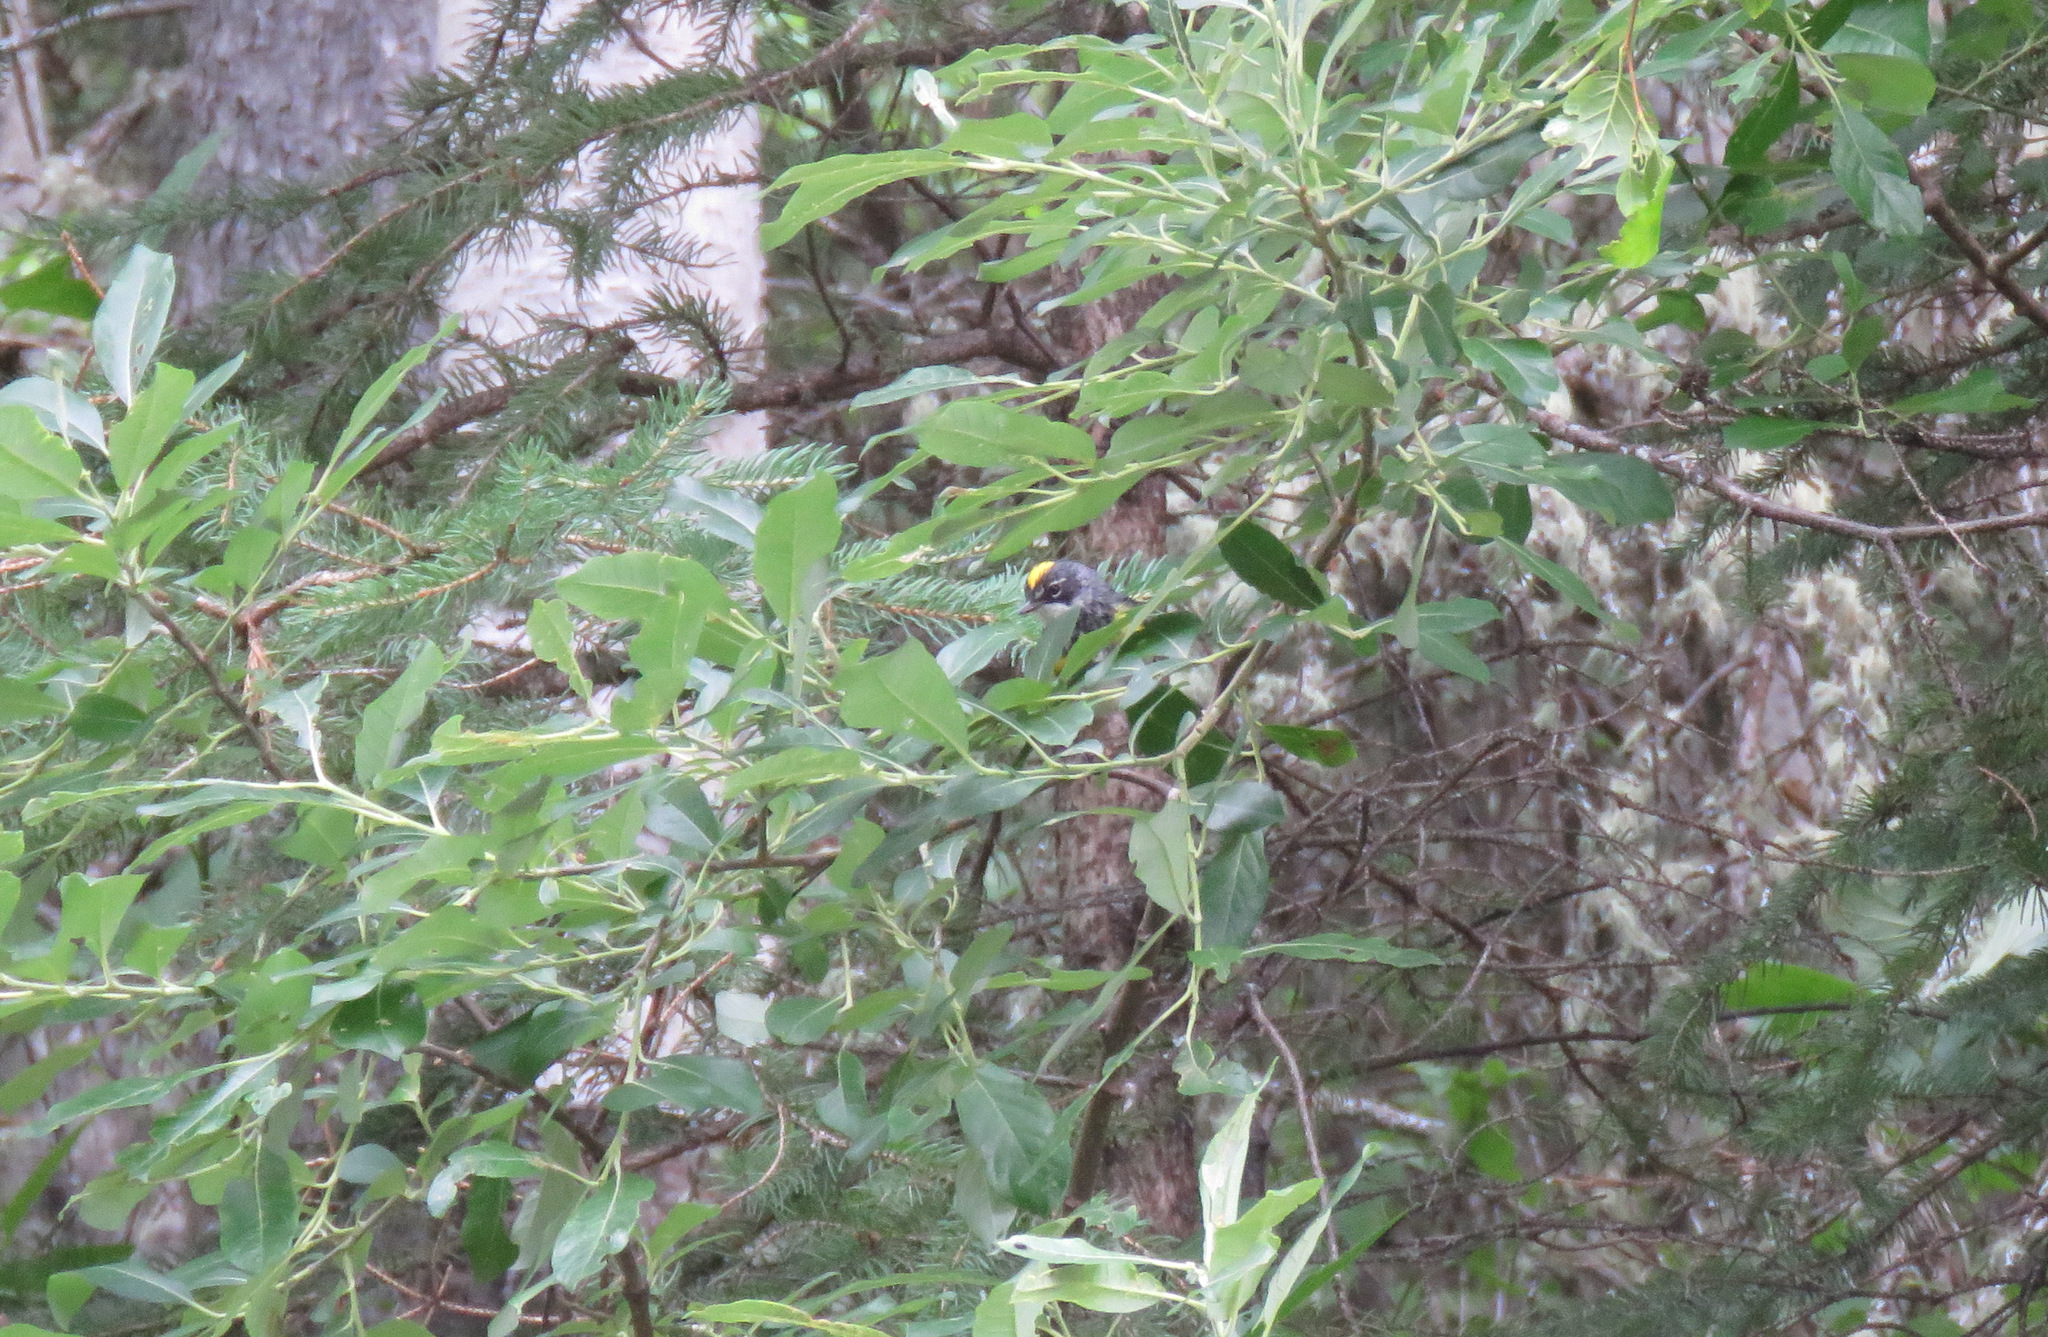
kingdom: Animalia
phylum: Chordata
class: Aves
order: Passeriformes
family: Parulidae
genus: Setophaga
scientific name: Setophaga coronata
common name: Myrtle warbler
